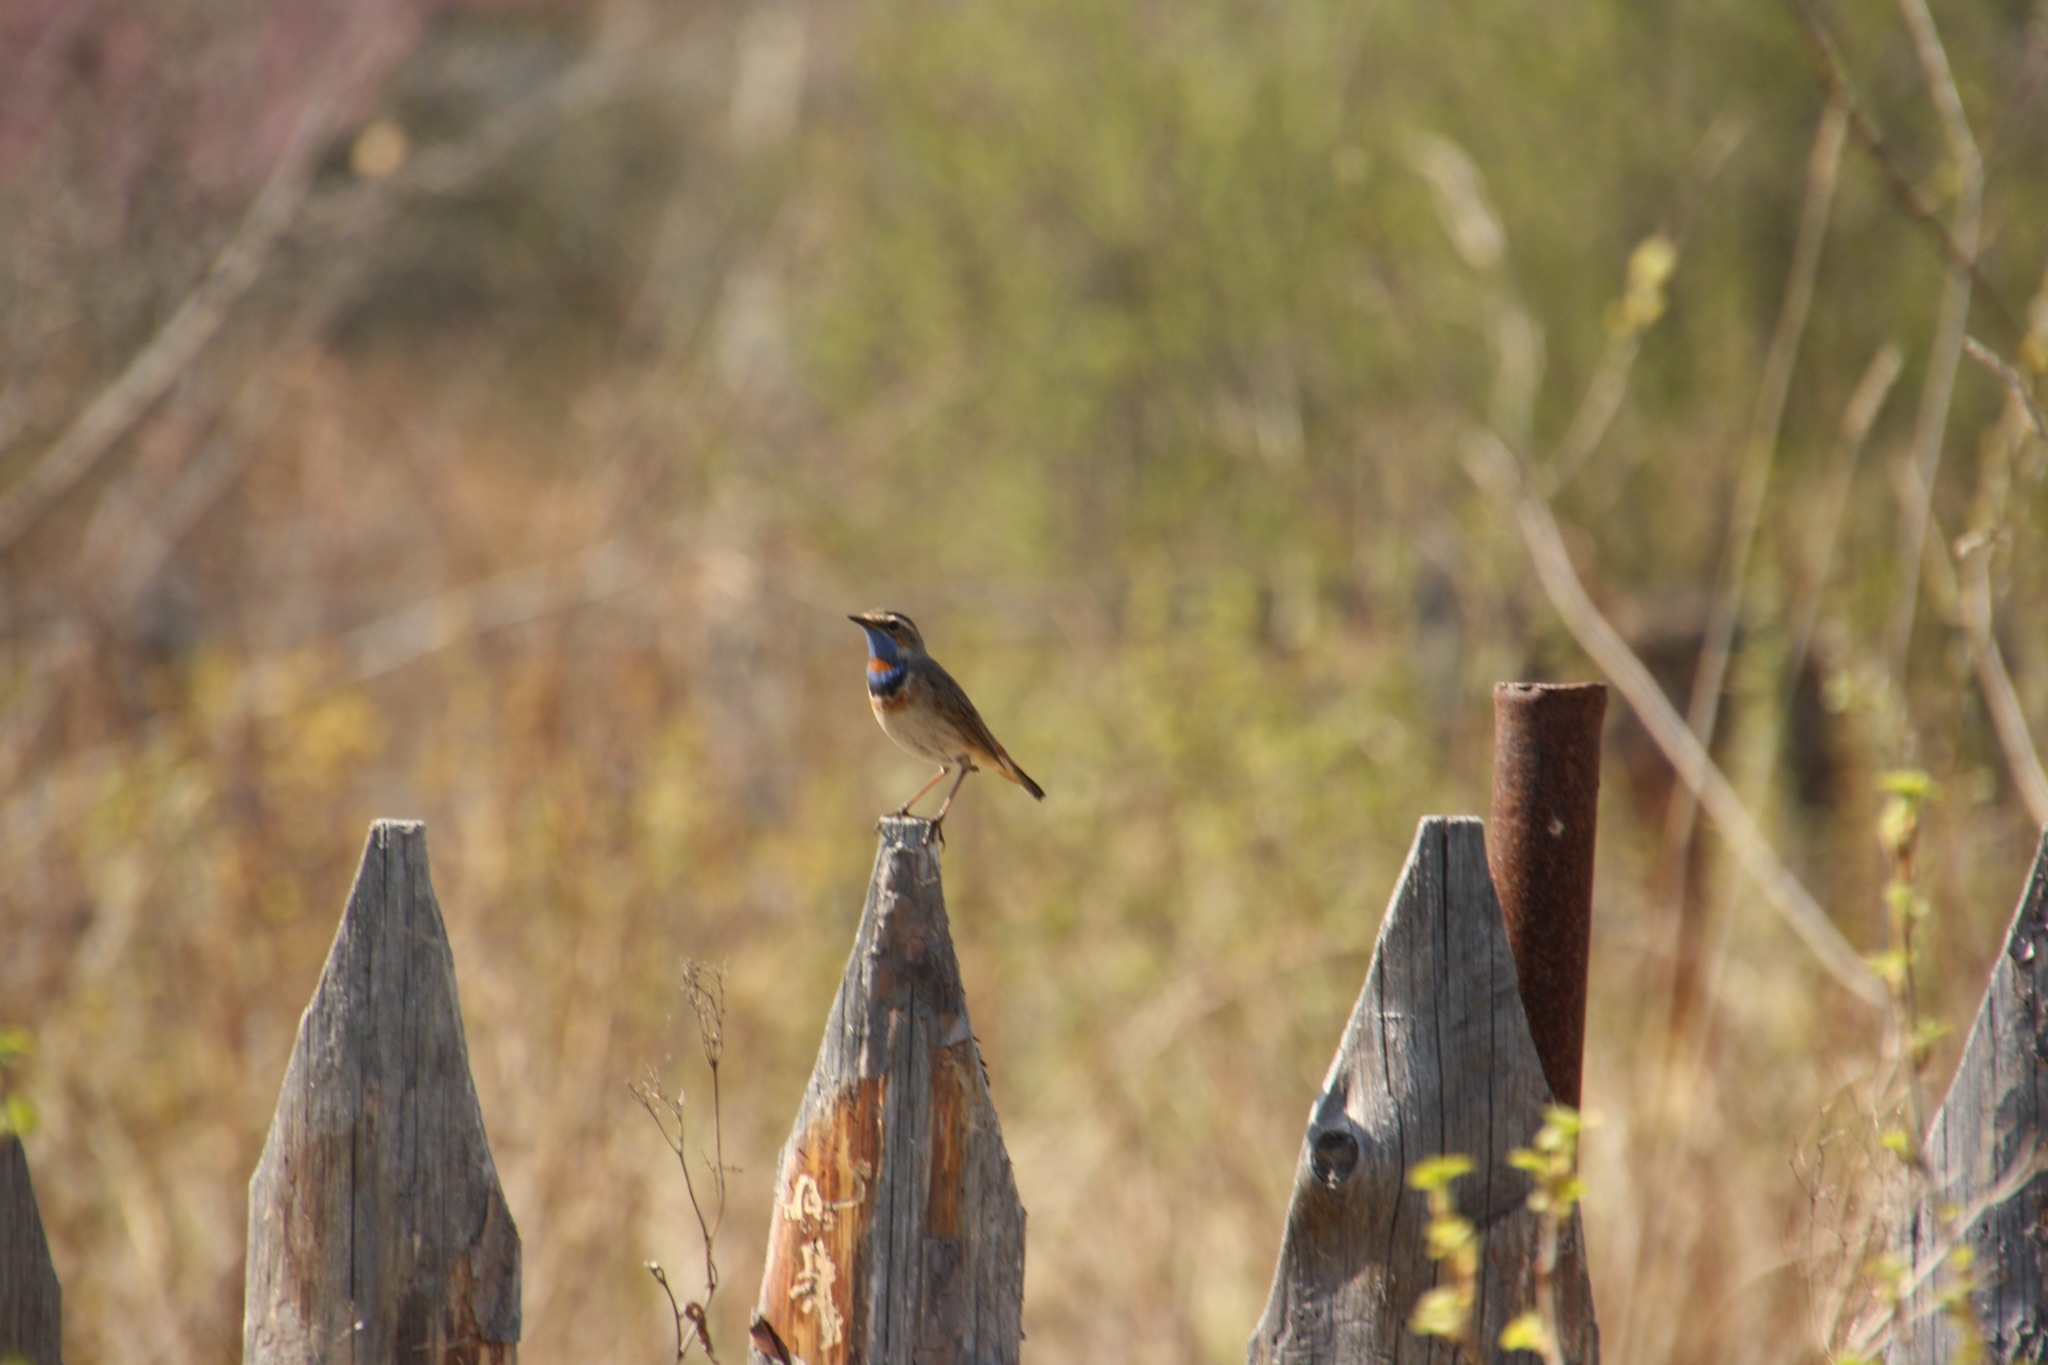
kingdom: Animalia
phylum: Chordata
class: Aves
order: Passeriformes
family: Muscicapidae
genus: Luscinia
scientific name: Luscinia svecica
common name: Bluethroat
